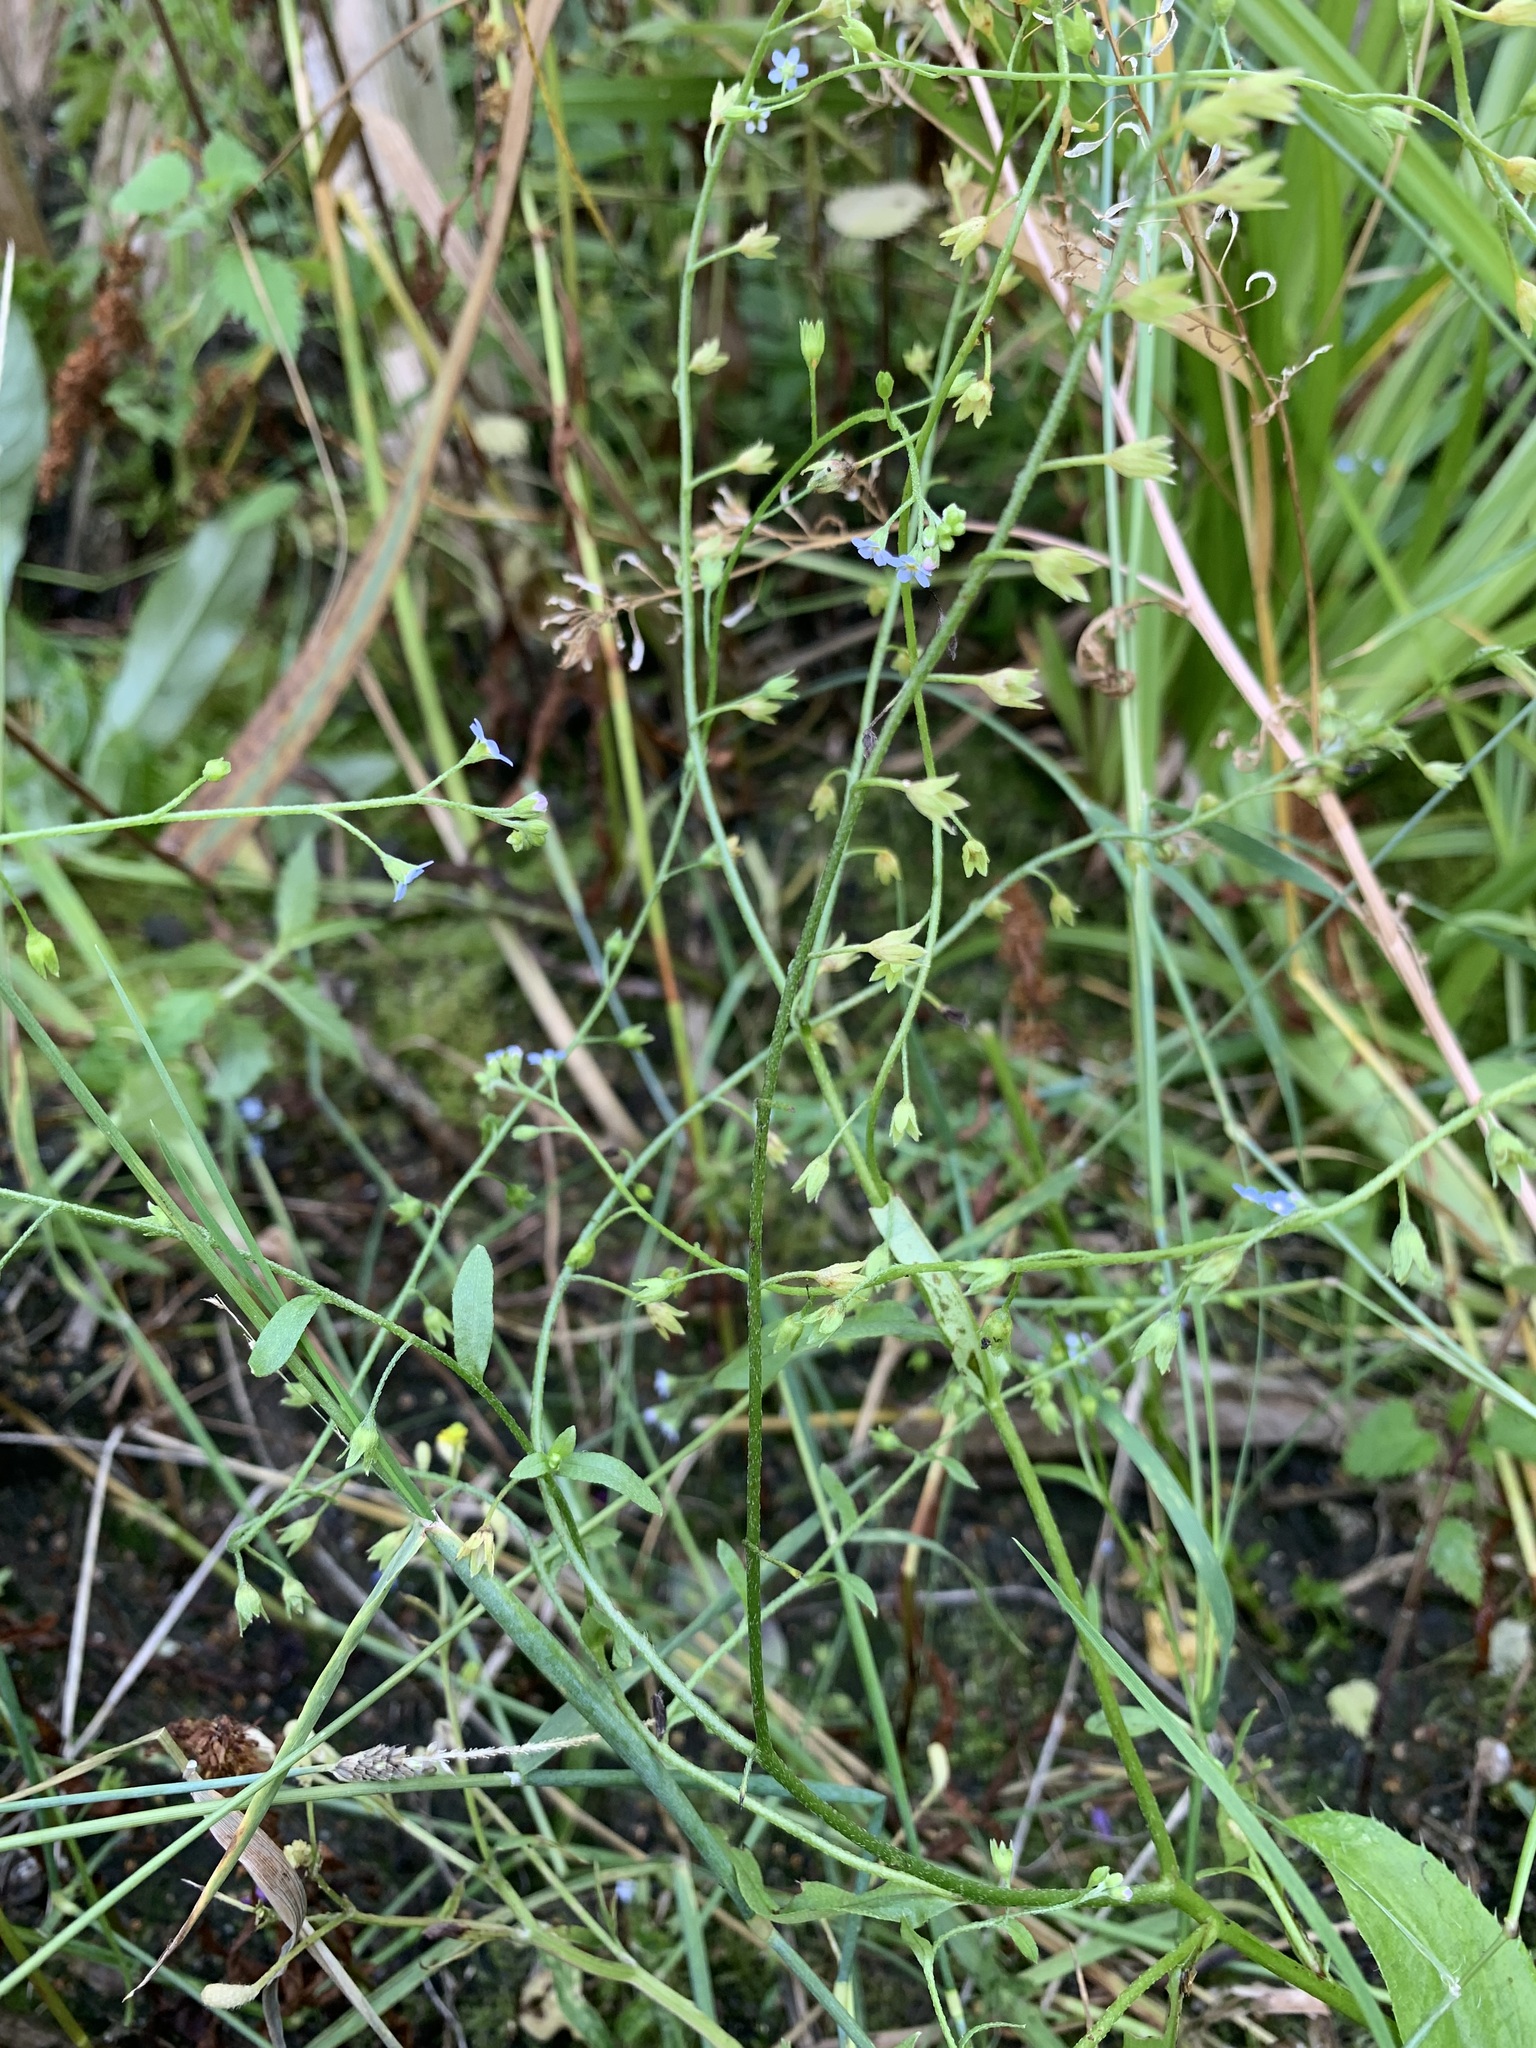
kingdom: Plantae
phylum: Tracheophyta
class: Magnoliopsida
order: Boraginales
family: Boraginaceae
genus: Myosotis
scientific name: Myosotis scorpioides
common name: Water forget-me-not
